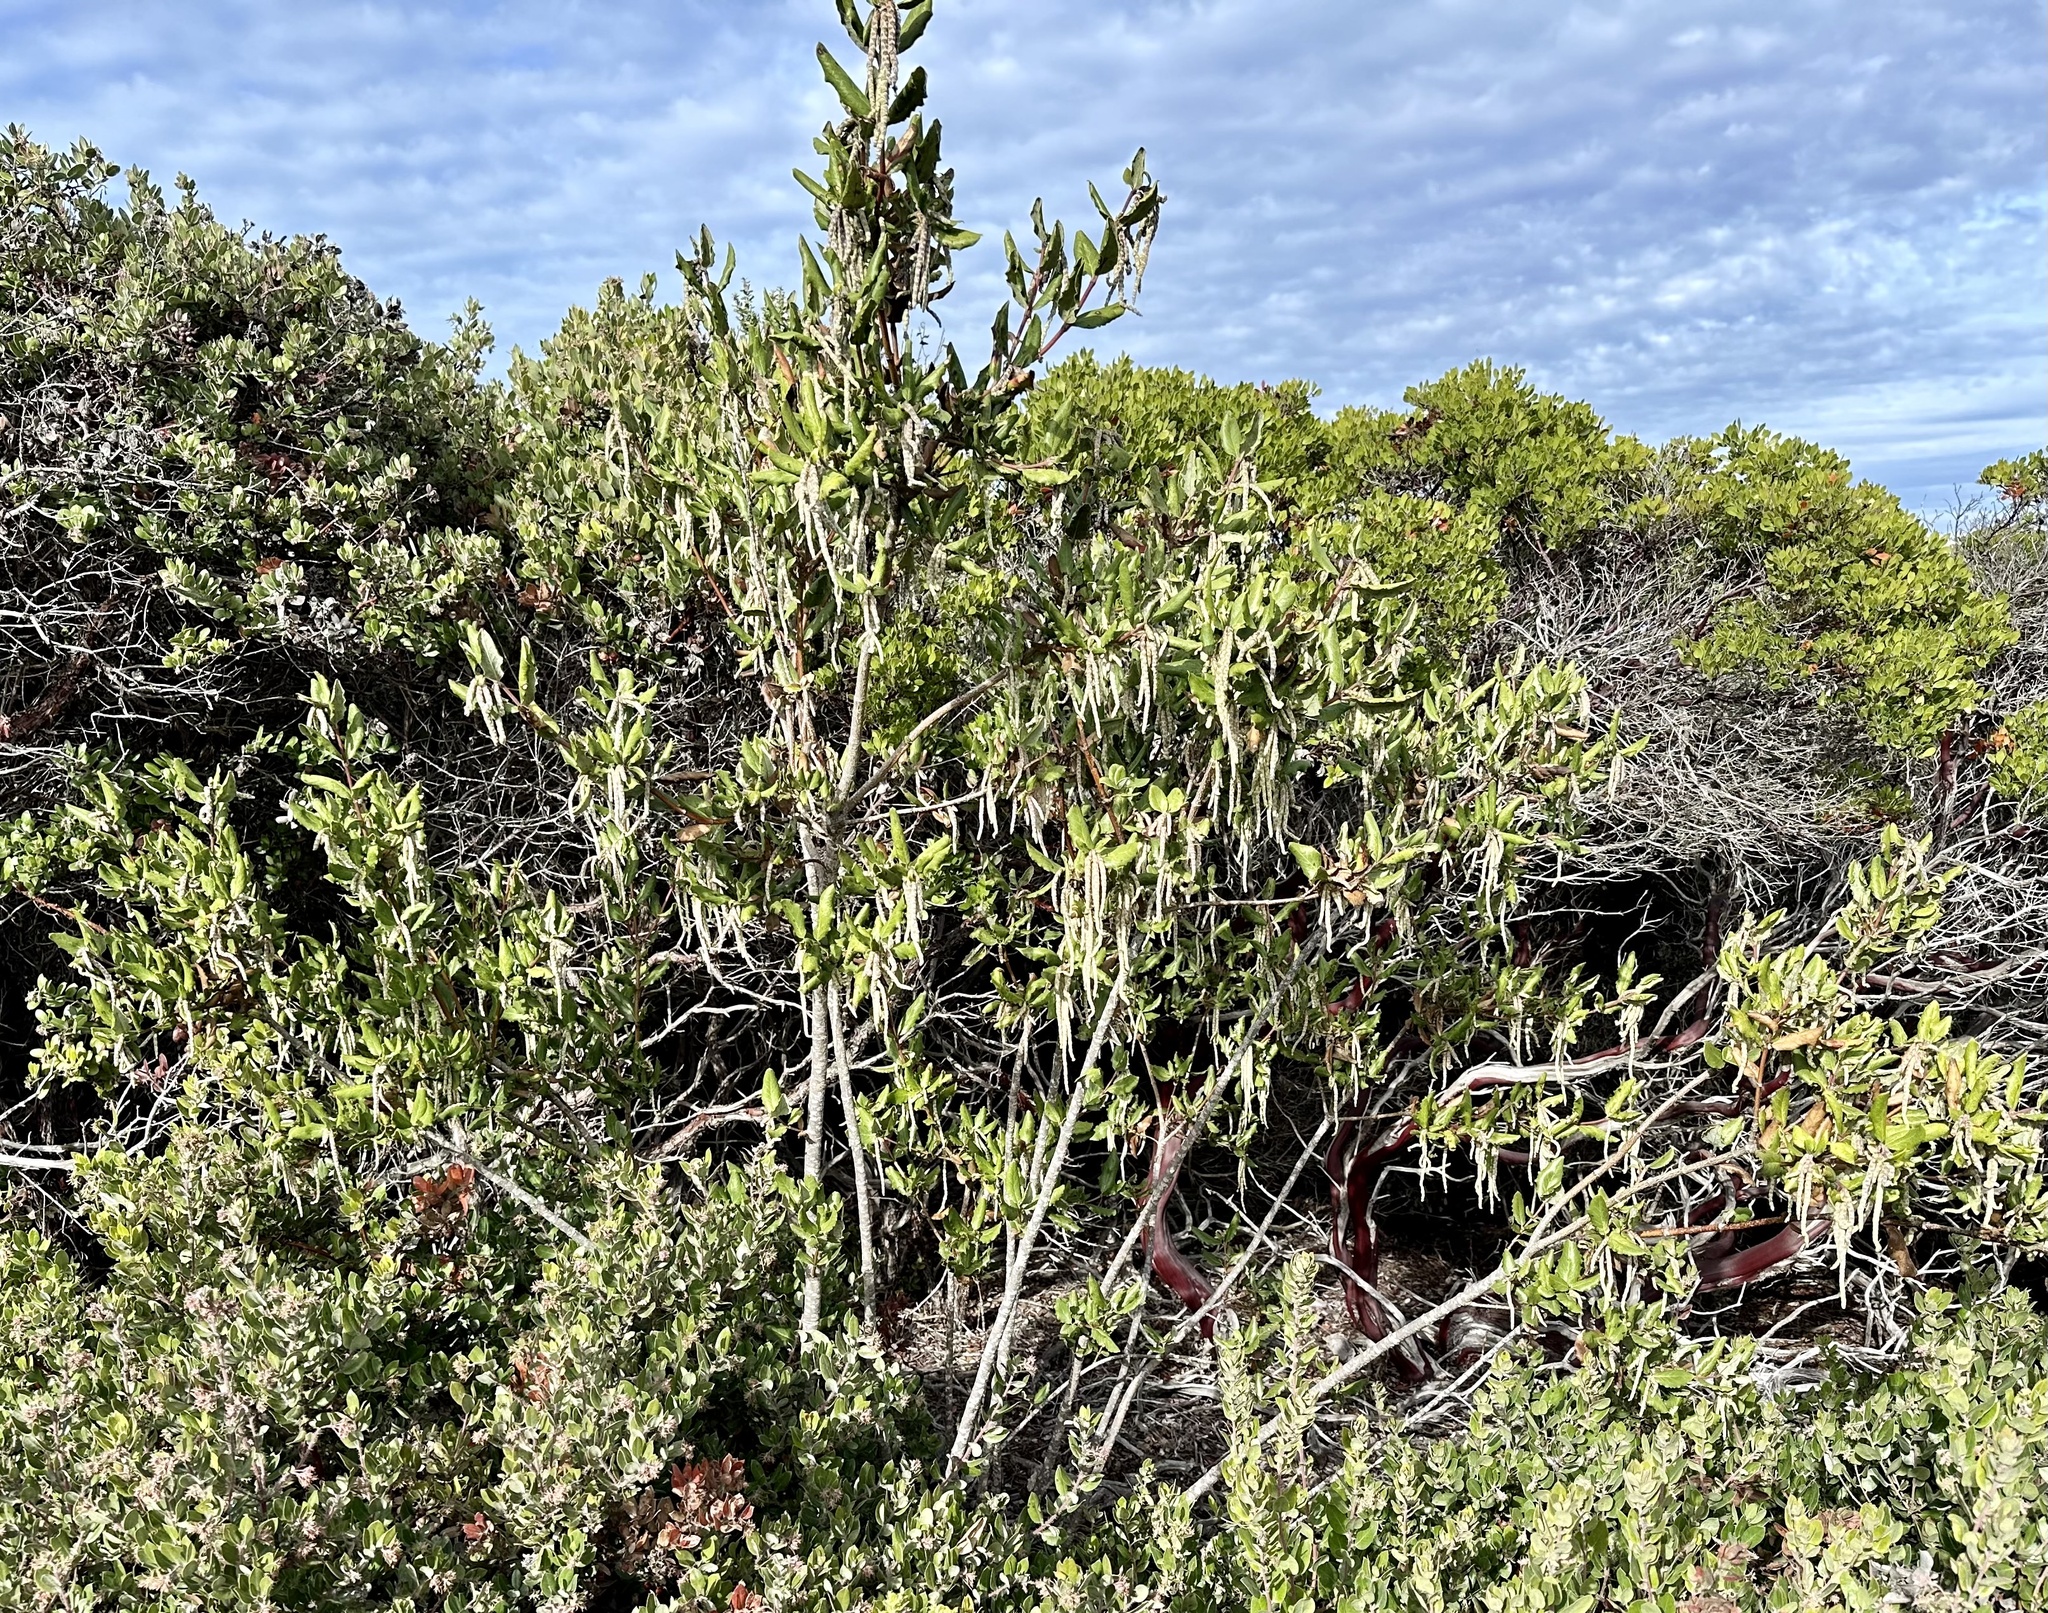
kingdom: Plantae
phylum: Tracheophyta
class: Magnoliopsida
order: Garryales
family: Garryaceae
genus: Garrya
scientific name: Garrya elliptica
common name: Silk-tassel
